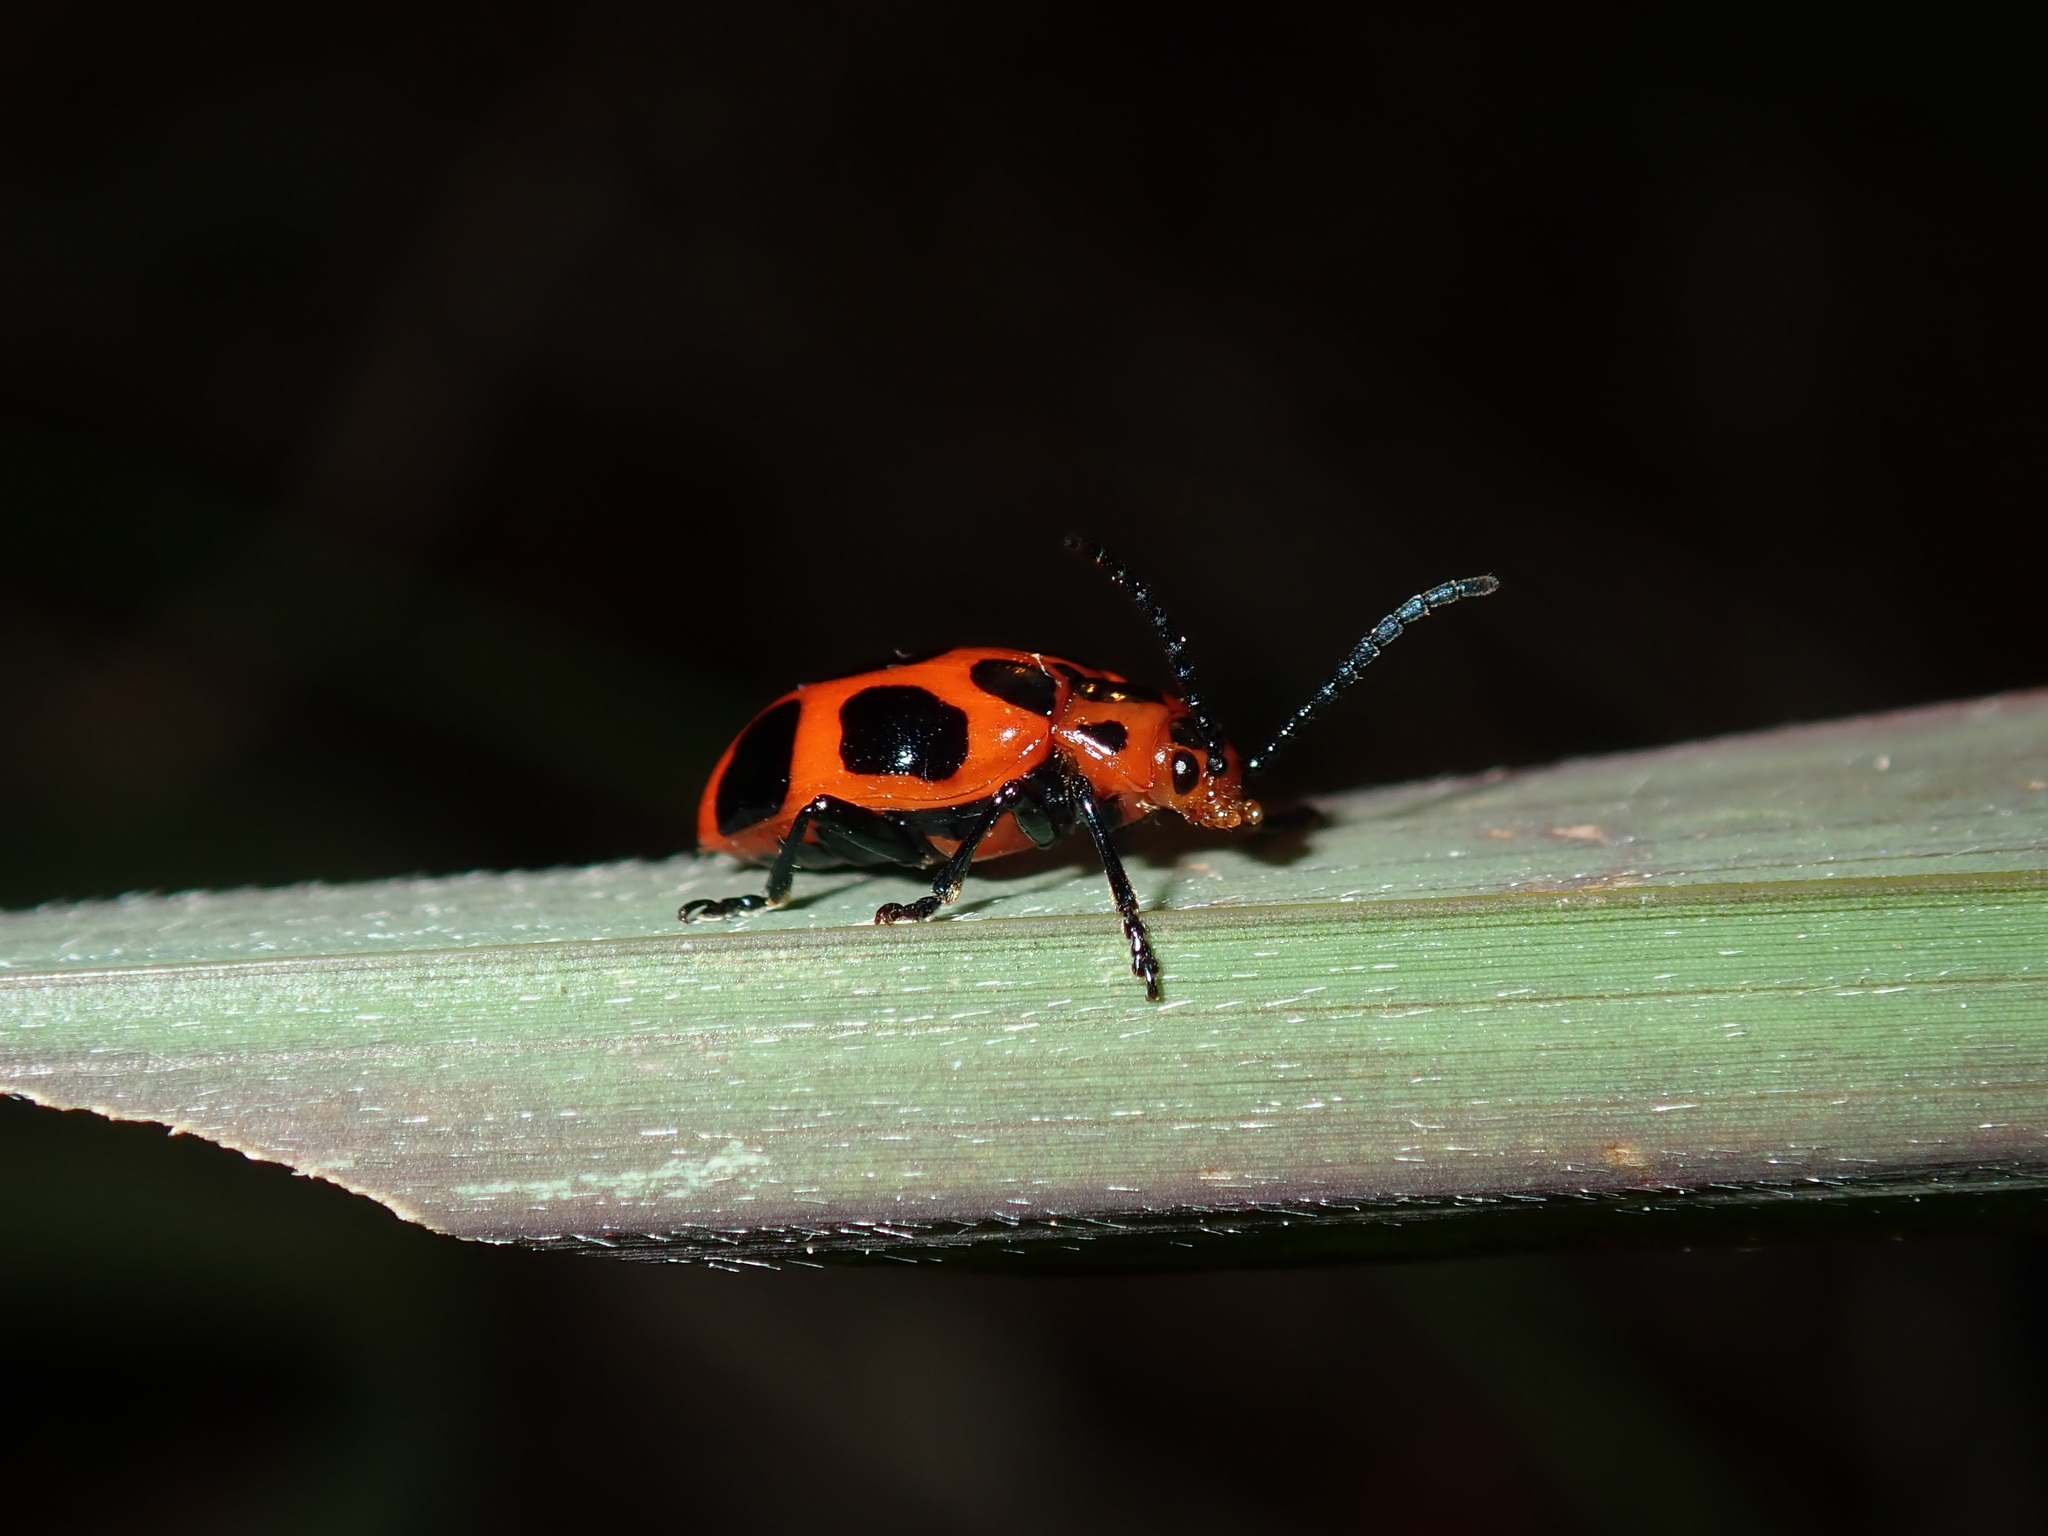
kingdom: Animalia
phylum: Arthropoda
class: Insecta
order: Coleoptera
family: Chrysomelidae
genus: Phyllocharis
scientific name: Phyllocharis
